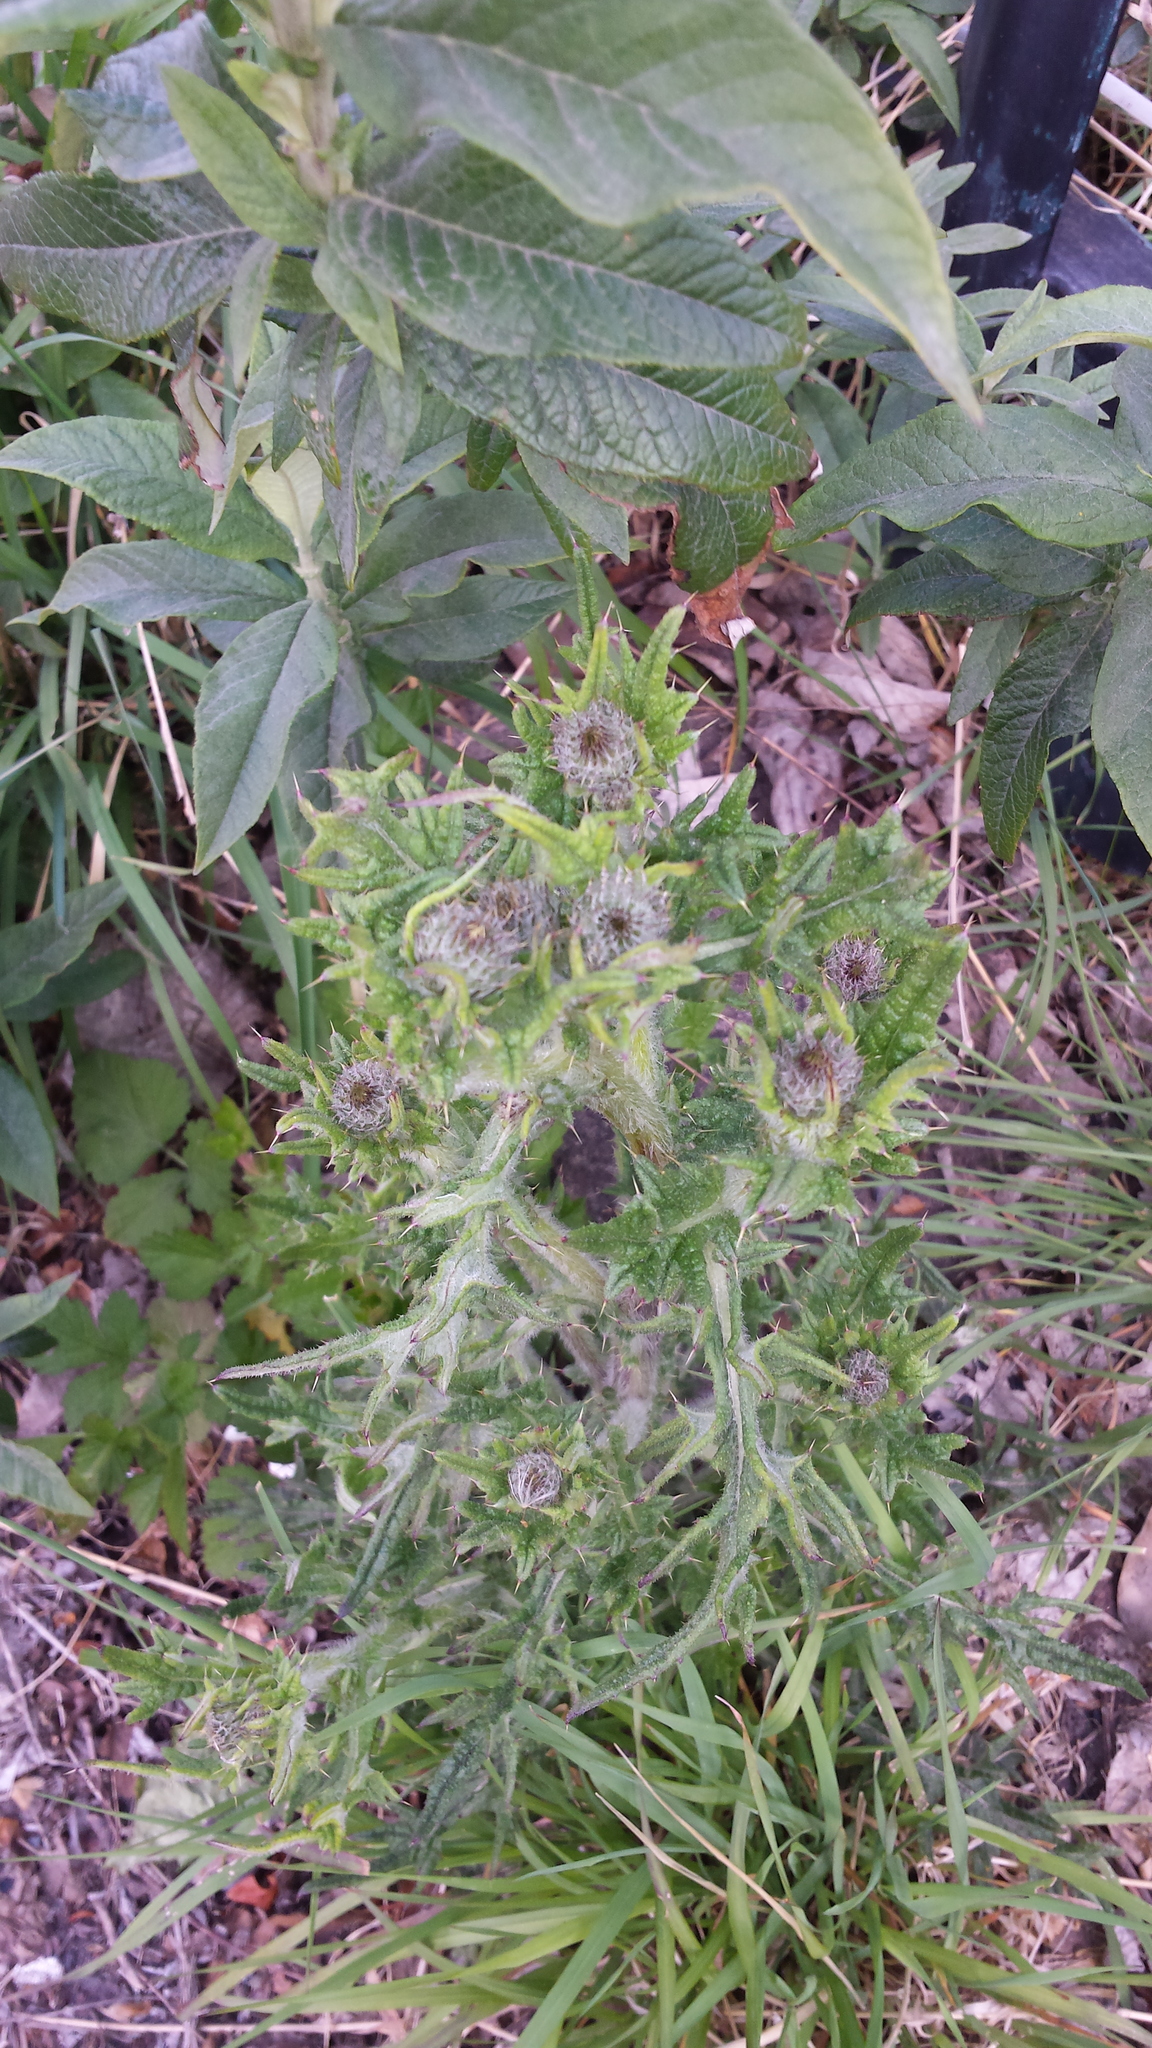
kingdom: Plantae
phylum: Tracheophyta
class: Magnoliopsida
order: Asterales
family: Asteraceae
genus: Cirsium
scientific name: Cirsium vulgare
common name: Bull thistle
